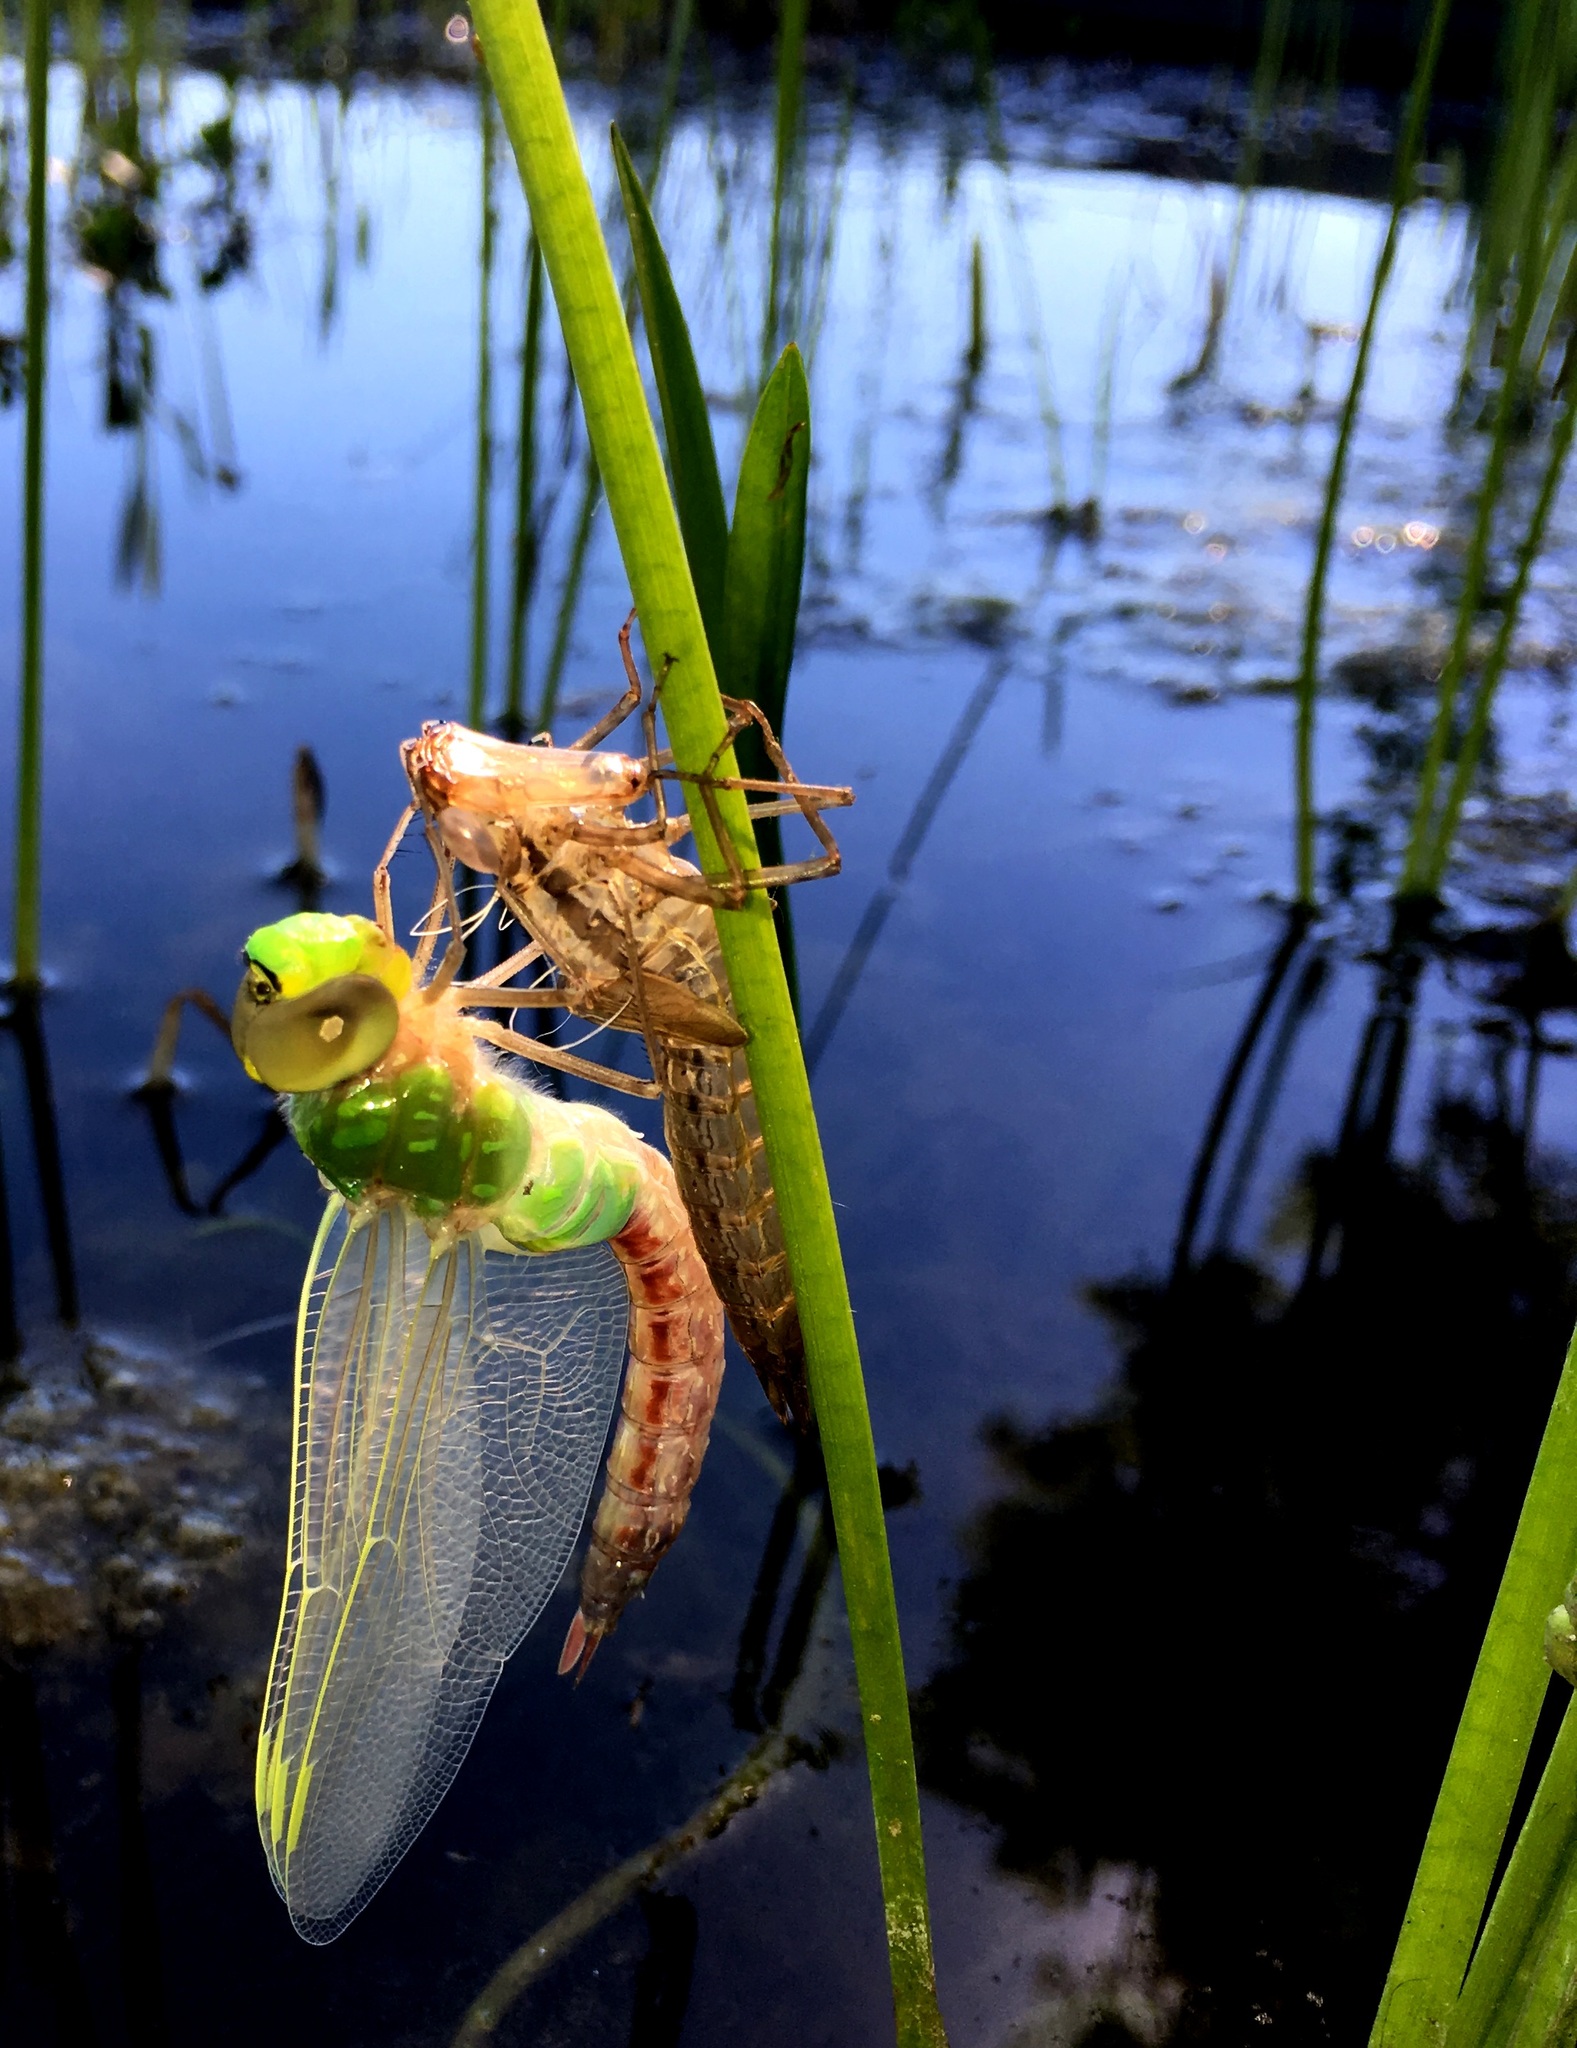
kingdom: Animalia
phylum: Arthropoda
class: Insecta
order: Odonata
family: Aeshnidae
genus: Anax
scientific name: Anax junius
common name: Common green darner
